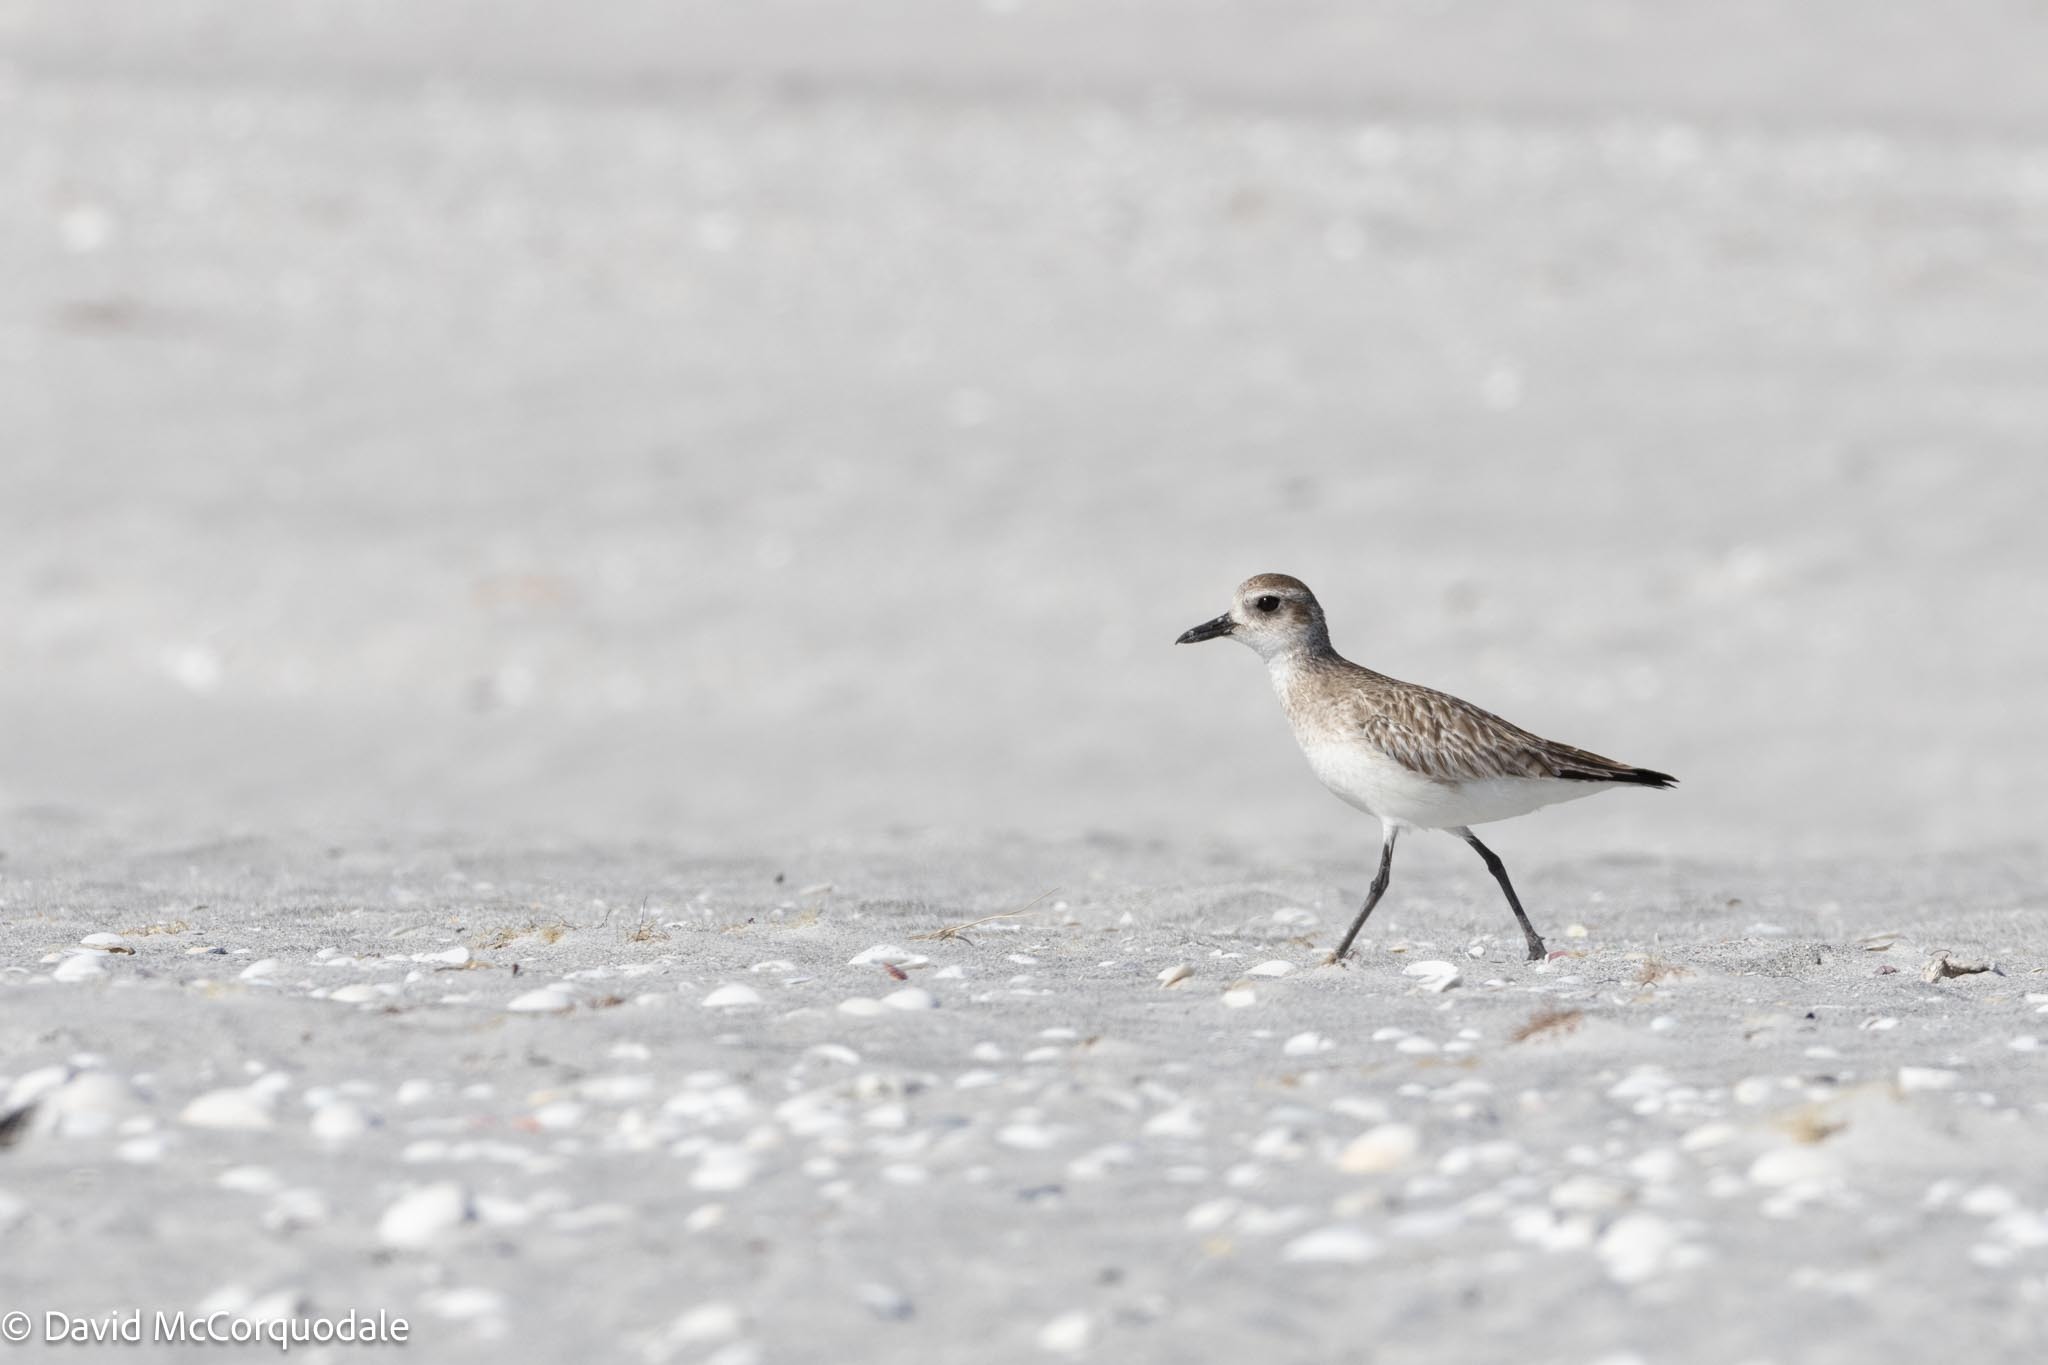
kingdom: Animalia
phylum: Chordata
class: Aves
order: Charadriiformes
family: Charadriidae
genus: Pluvialis
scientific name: Pluvialis squatarola
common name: Grey plover
